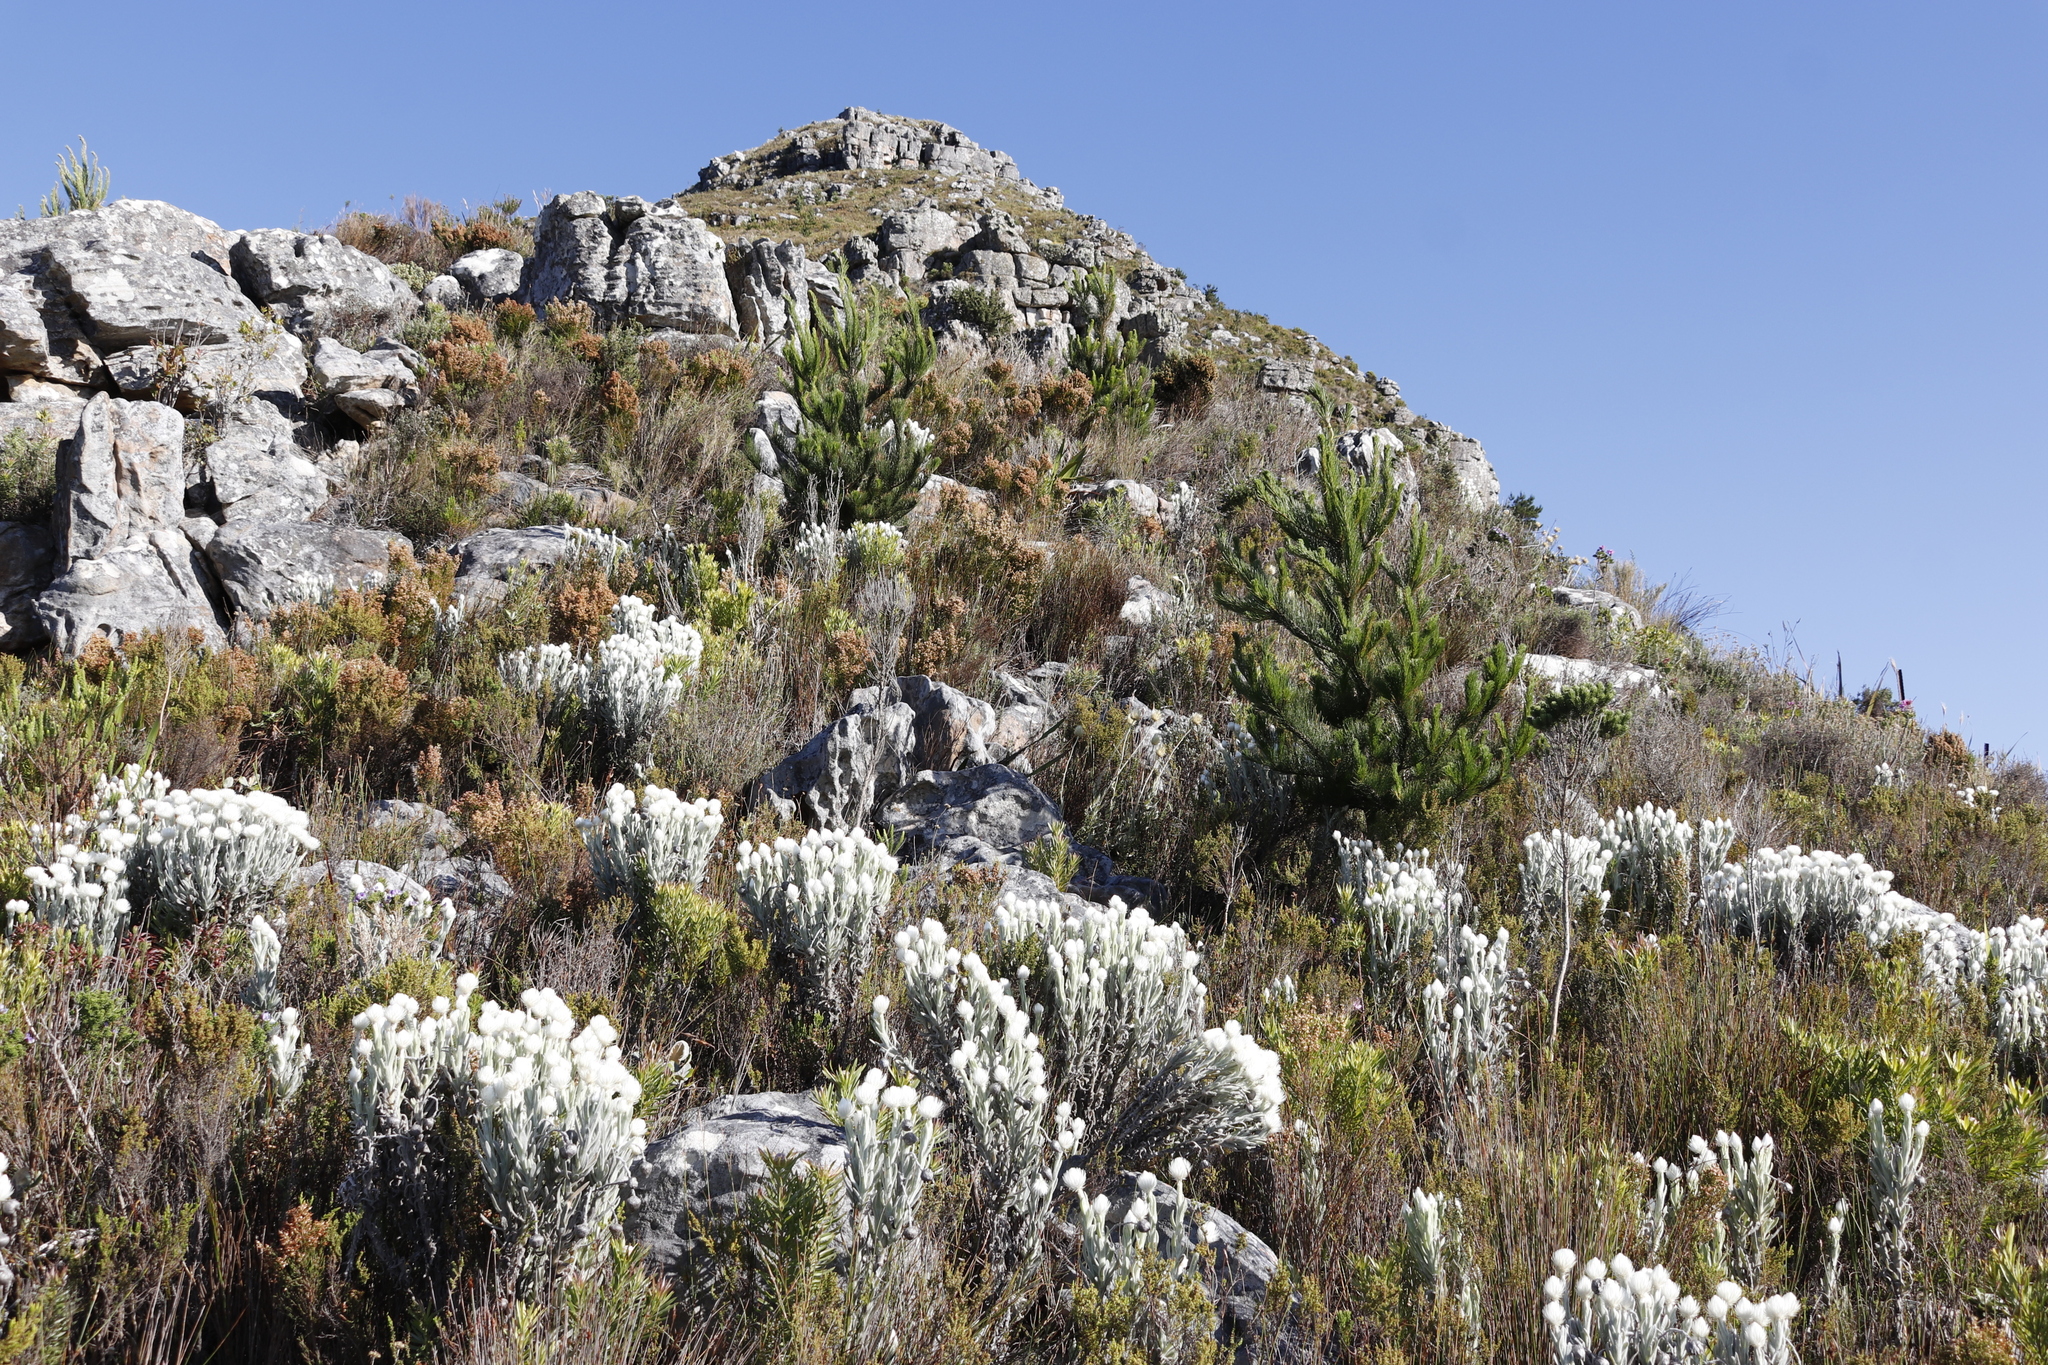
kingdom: Plantae
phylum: Tracheophyta
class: Pinopsida
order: Pinales
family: Pinaceae
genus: Pinus
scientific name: Pinus radiata
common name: Monterey pine
